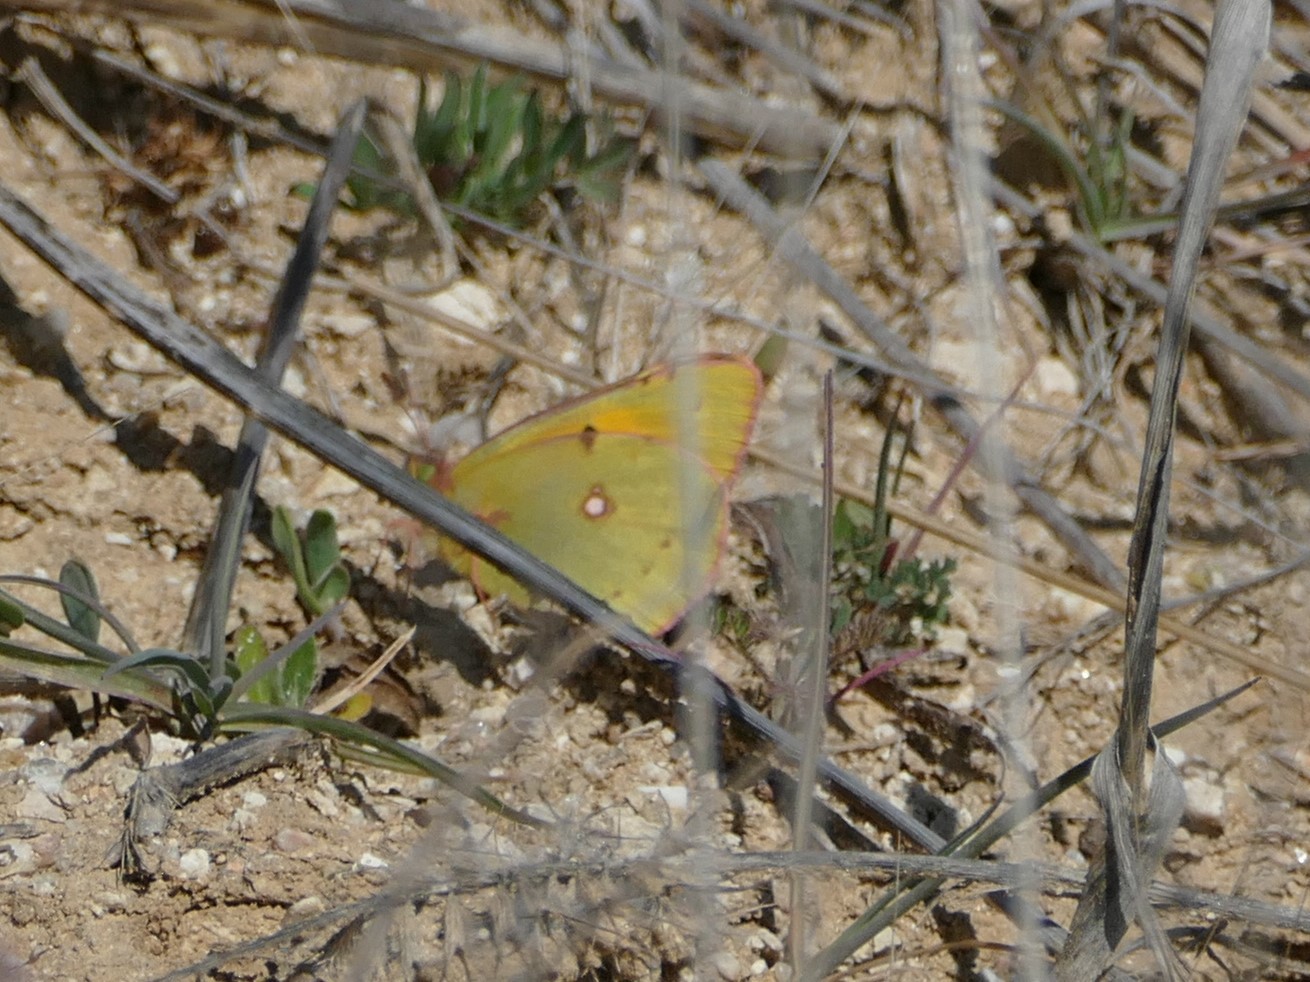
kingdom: Animalia
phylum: Arthropoda
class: Insecta
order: Lepidoptera
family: Pieridae
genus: Colias
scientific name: Colias croceus
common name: Clouded yellow
